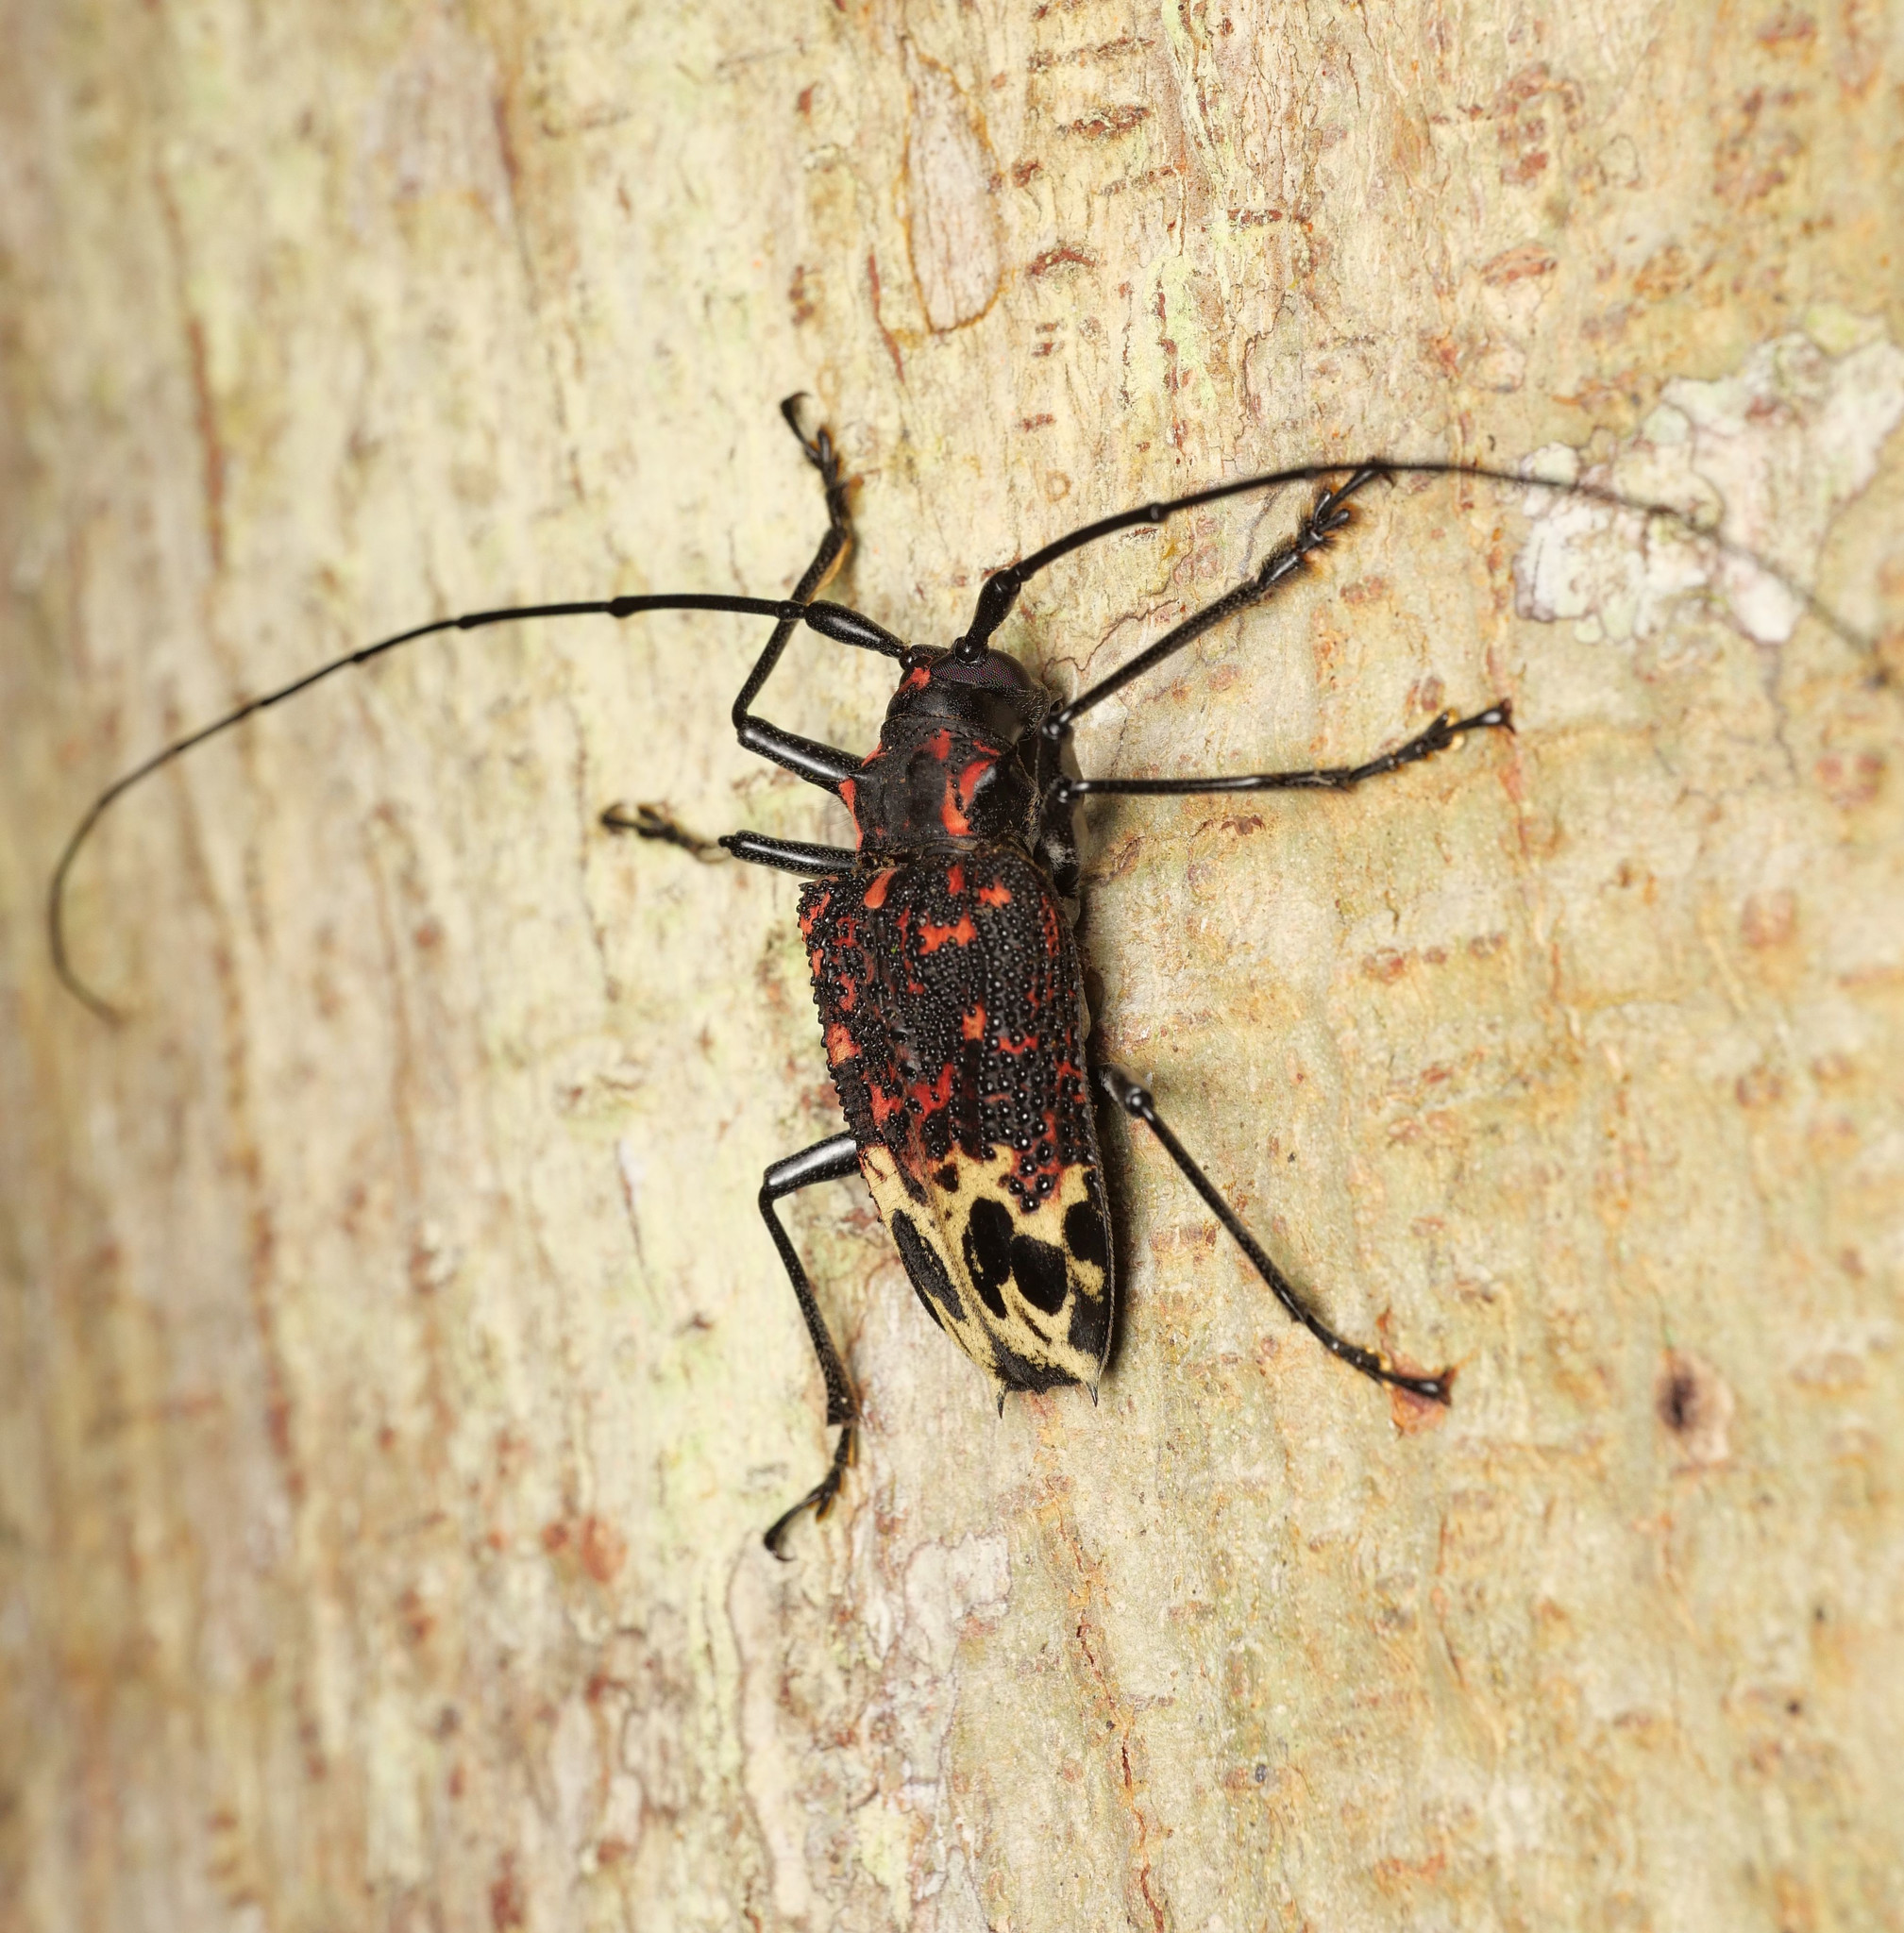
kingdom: Animalia
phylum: Arthropoda
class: Insecta
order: Coleoptera
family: Cerambycidae
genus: Polyrhaphis
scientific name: Polyrhaphis belti
